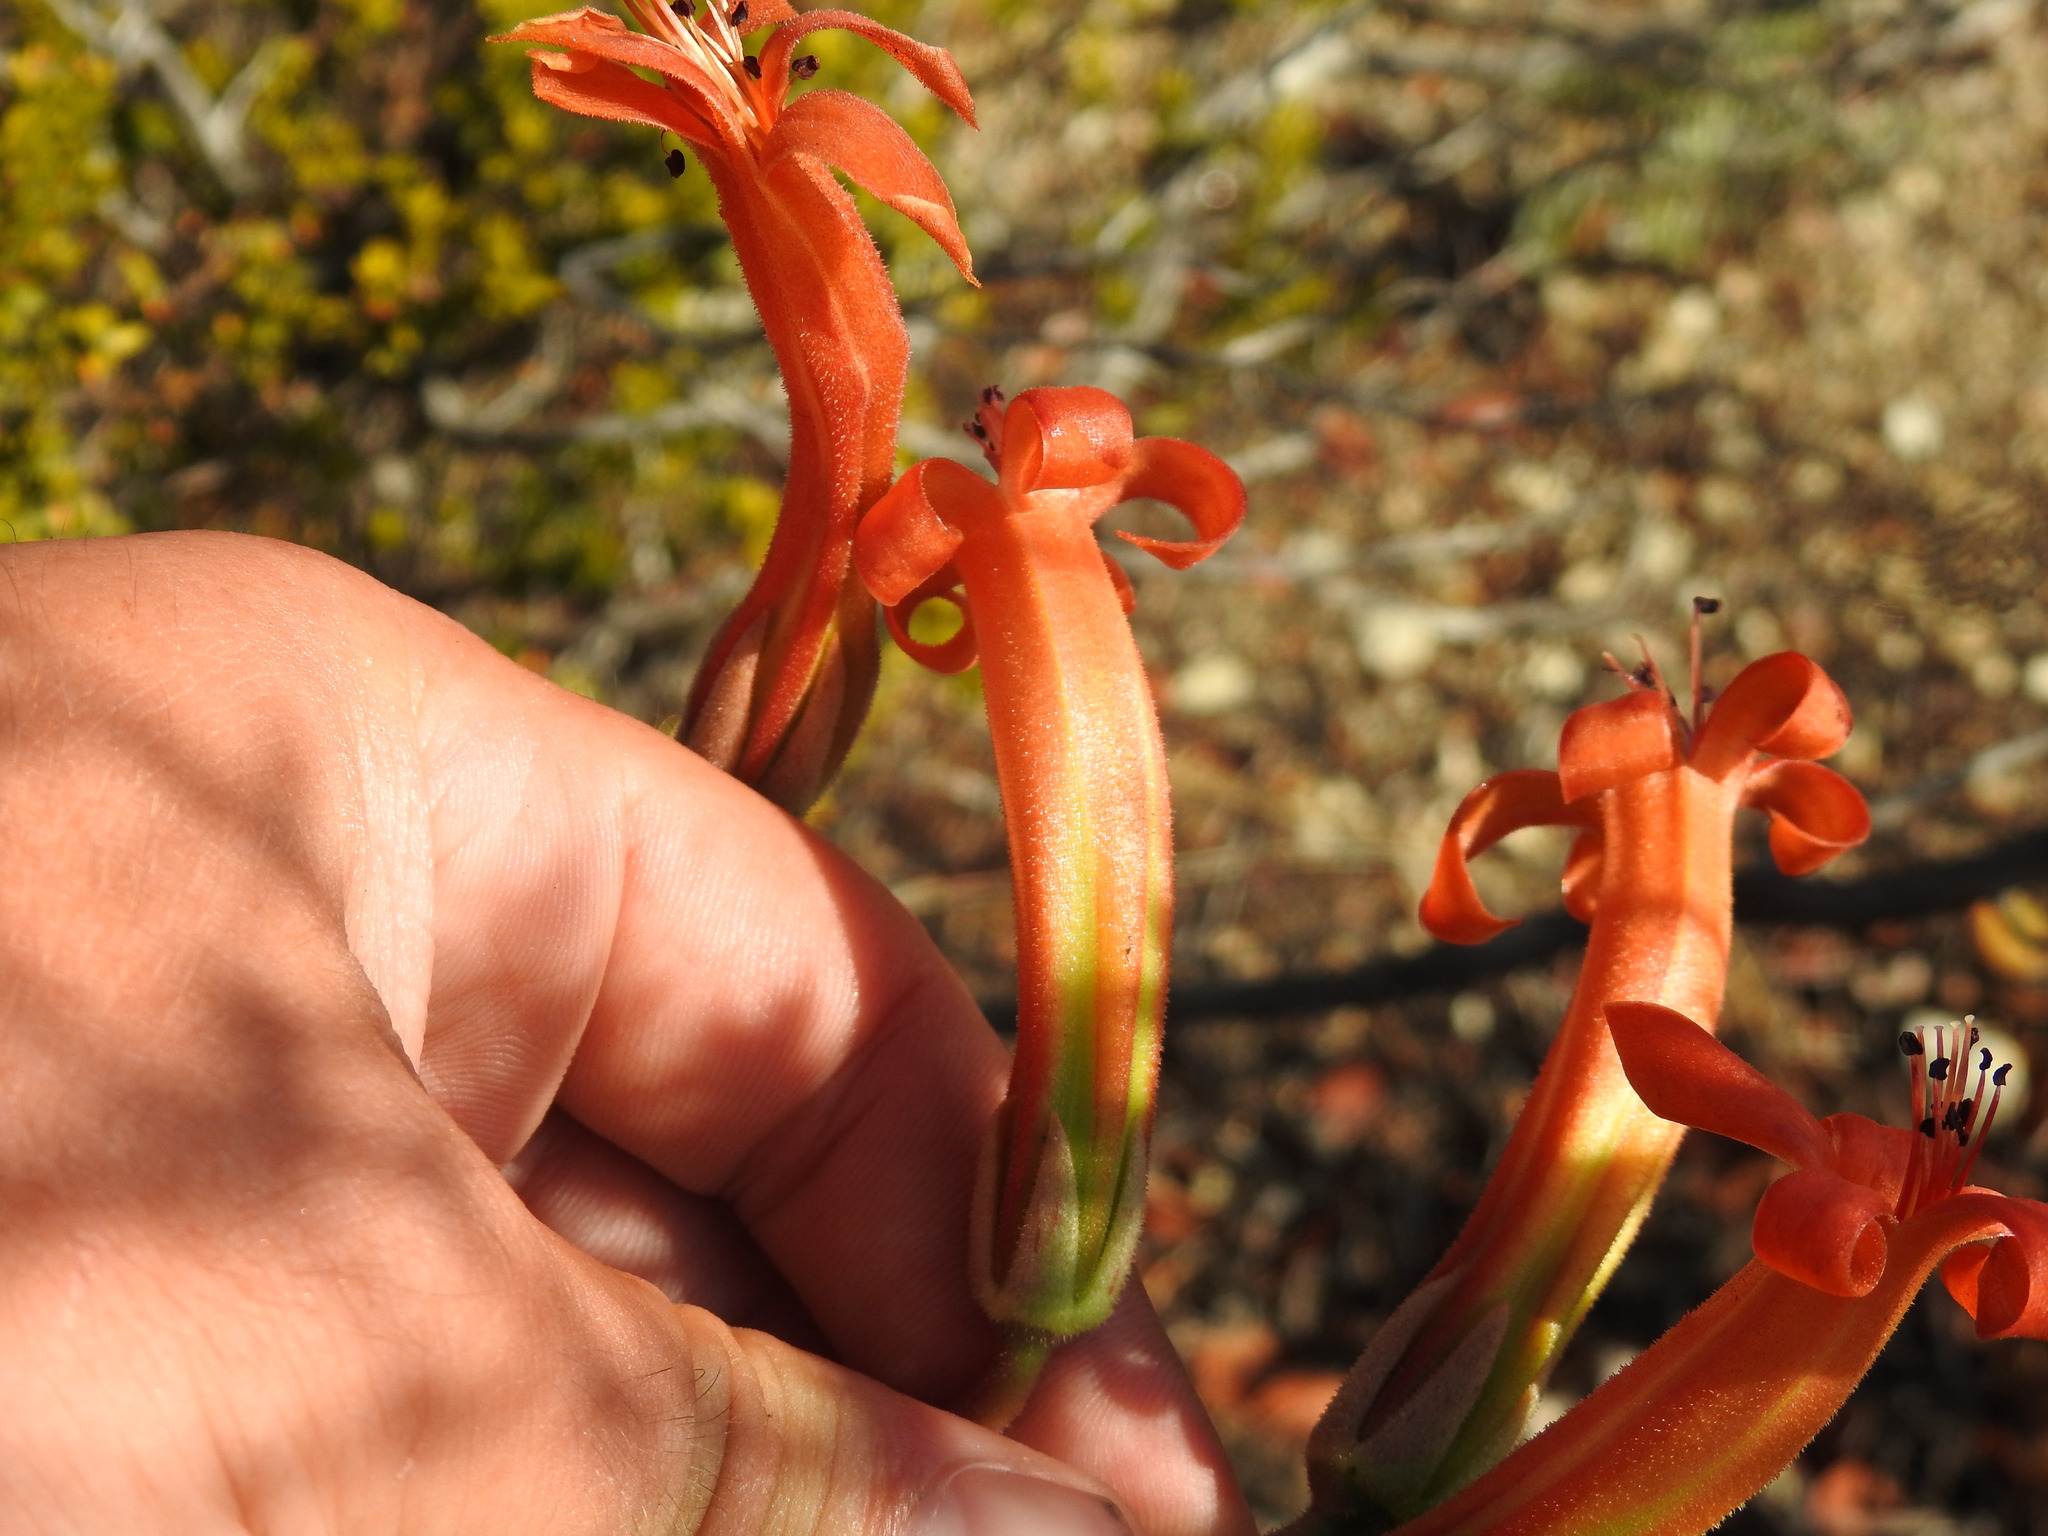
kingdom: Plantae
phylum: Tracheophyta
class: Magnoliopsida
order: Saxifragales
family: Crassulaceae
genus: Tylecodon
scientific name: Tylecodon grandiflorus
